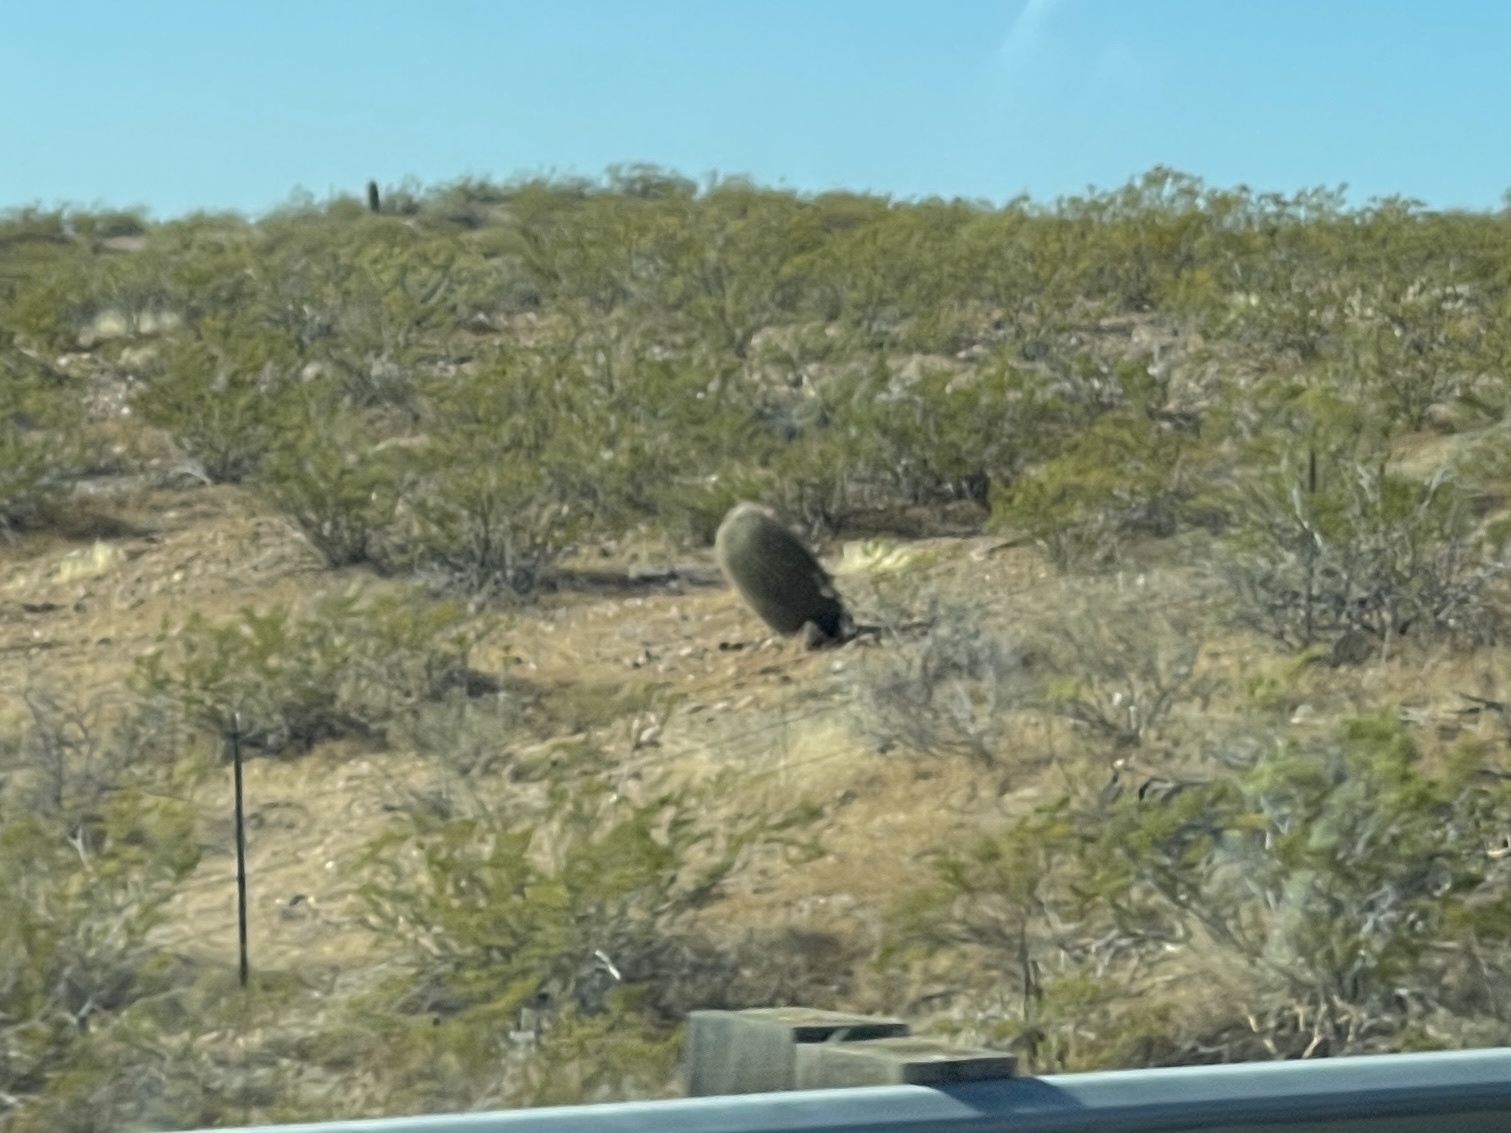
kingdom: Plantae
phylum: Tracheophyta
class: Magnoliopsida
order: Caryophyllales
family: Cactaceae
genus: Ferocactus
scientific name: Ferocactus wislizeni
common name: Candy barrel cactus
